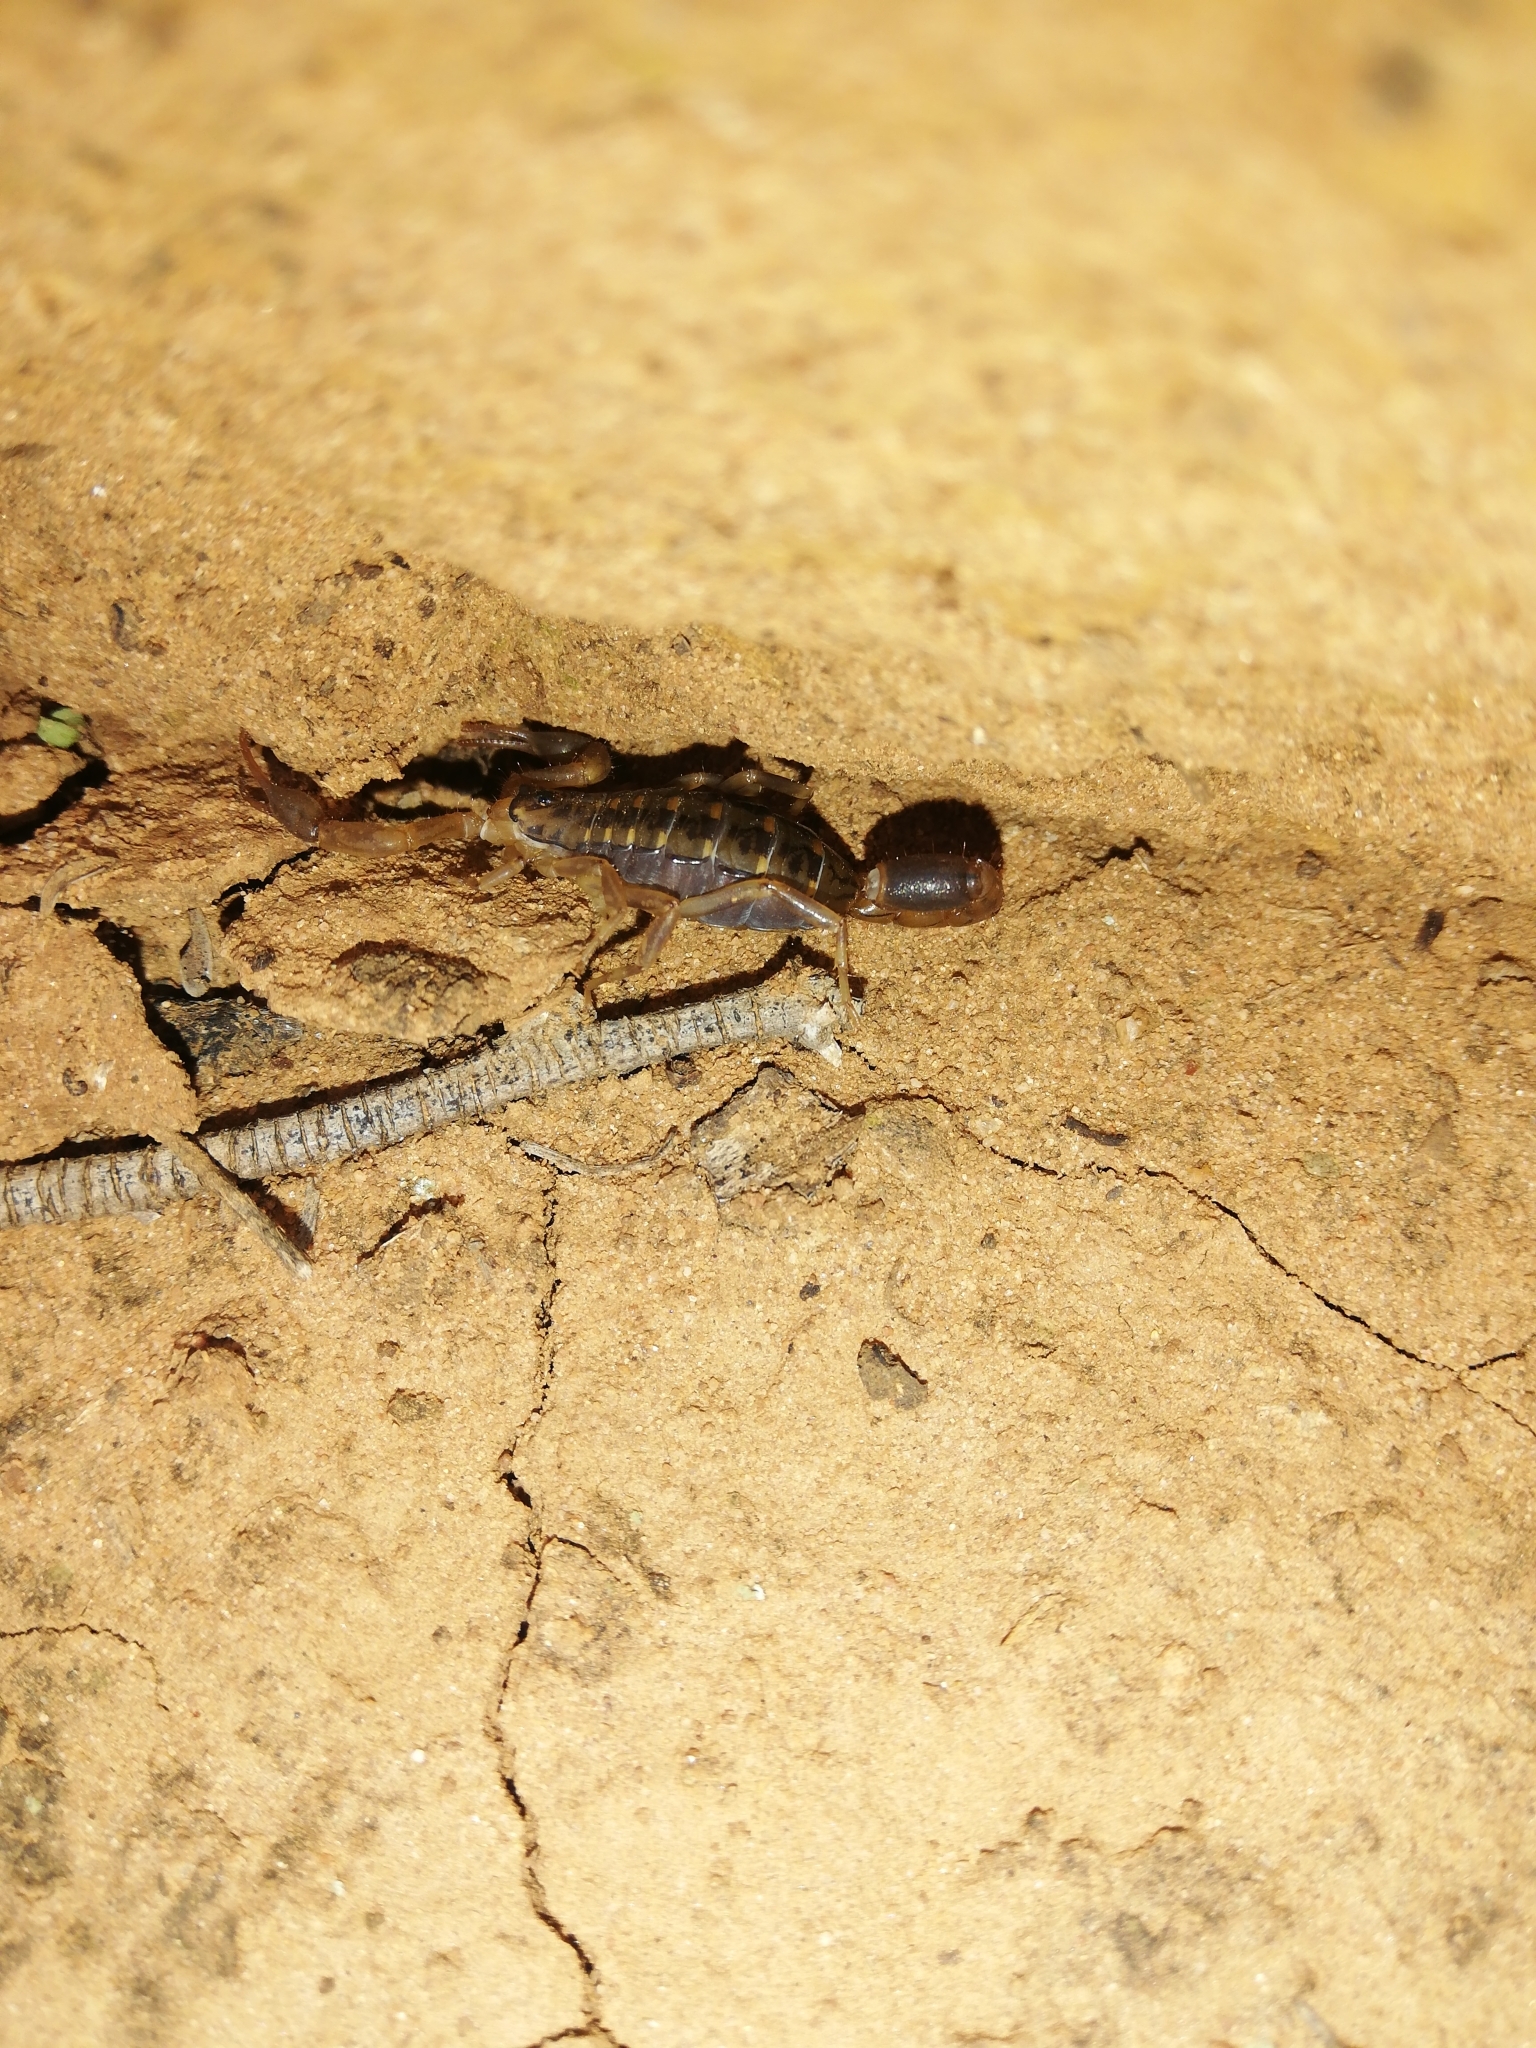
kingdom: Animalia
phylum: Arthropoda
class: Arachnida
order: Scorpiones
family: Buthidae
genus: Uroplectes
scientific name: Uroplectes formosus
